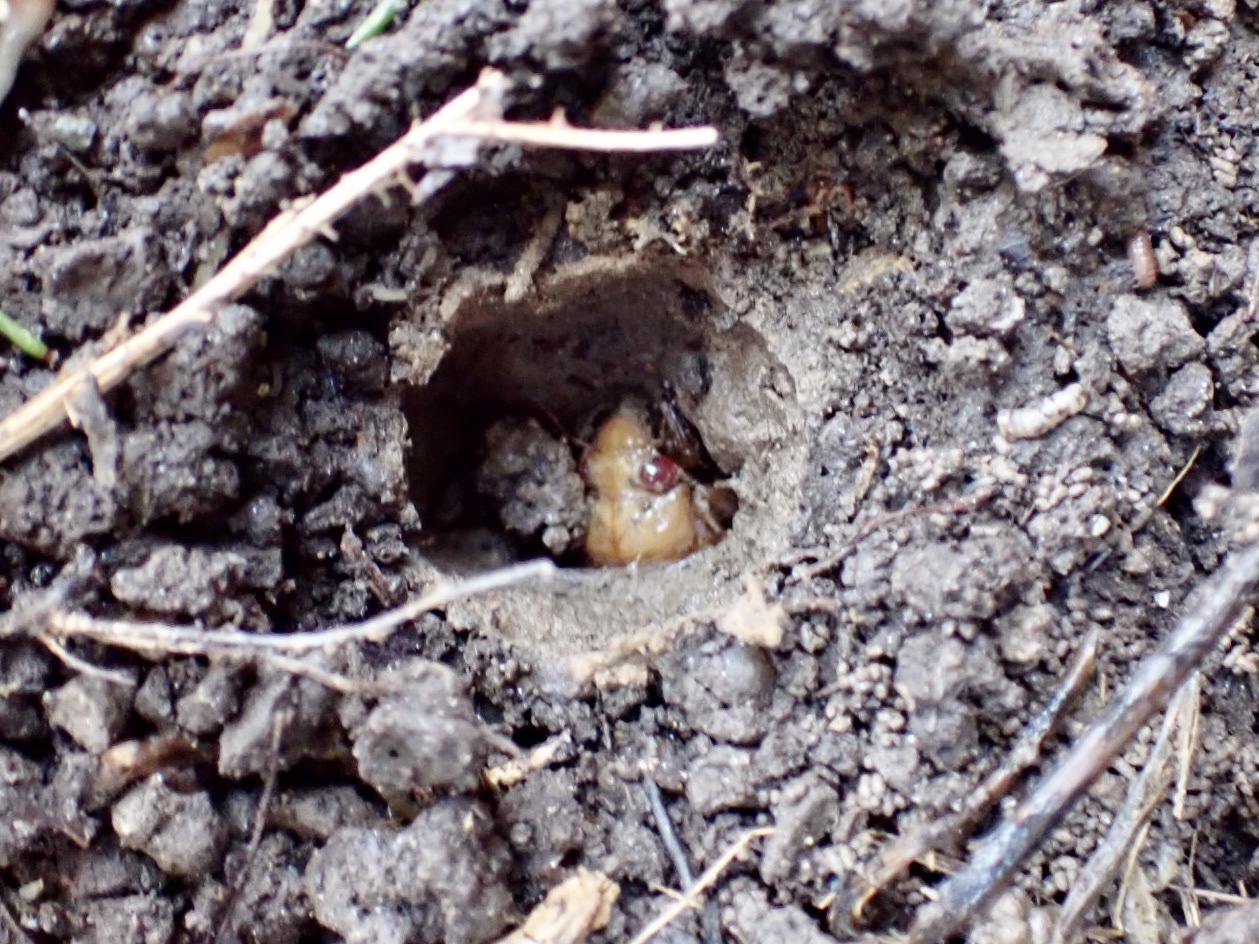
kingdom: Animalia
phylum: Arthropoda
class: Insecta
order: Hemiptera
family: Cicadidae
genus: Magicicada
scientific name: Magicicada
